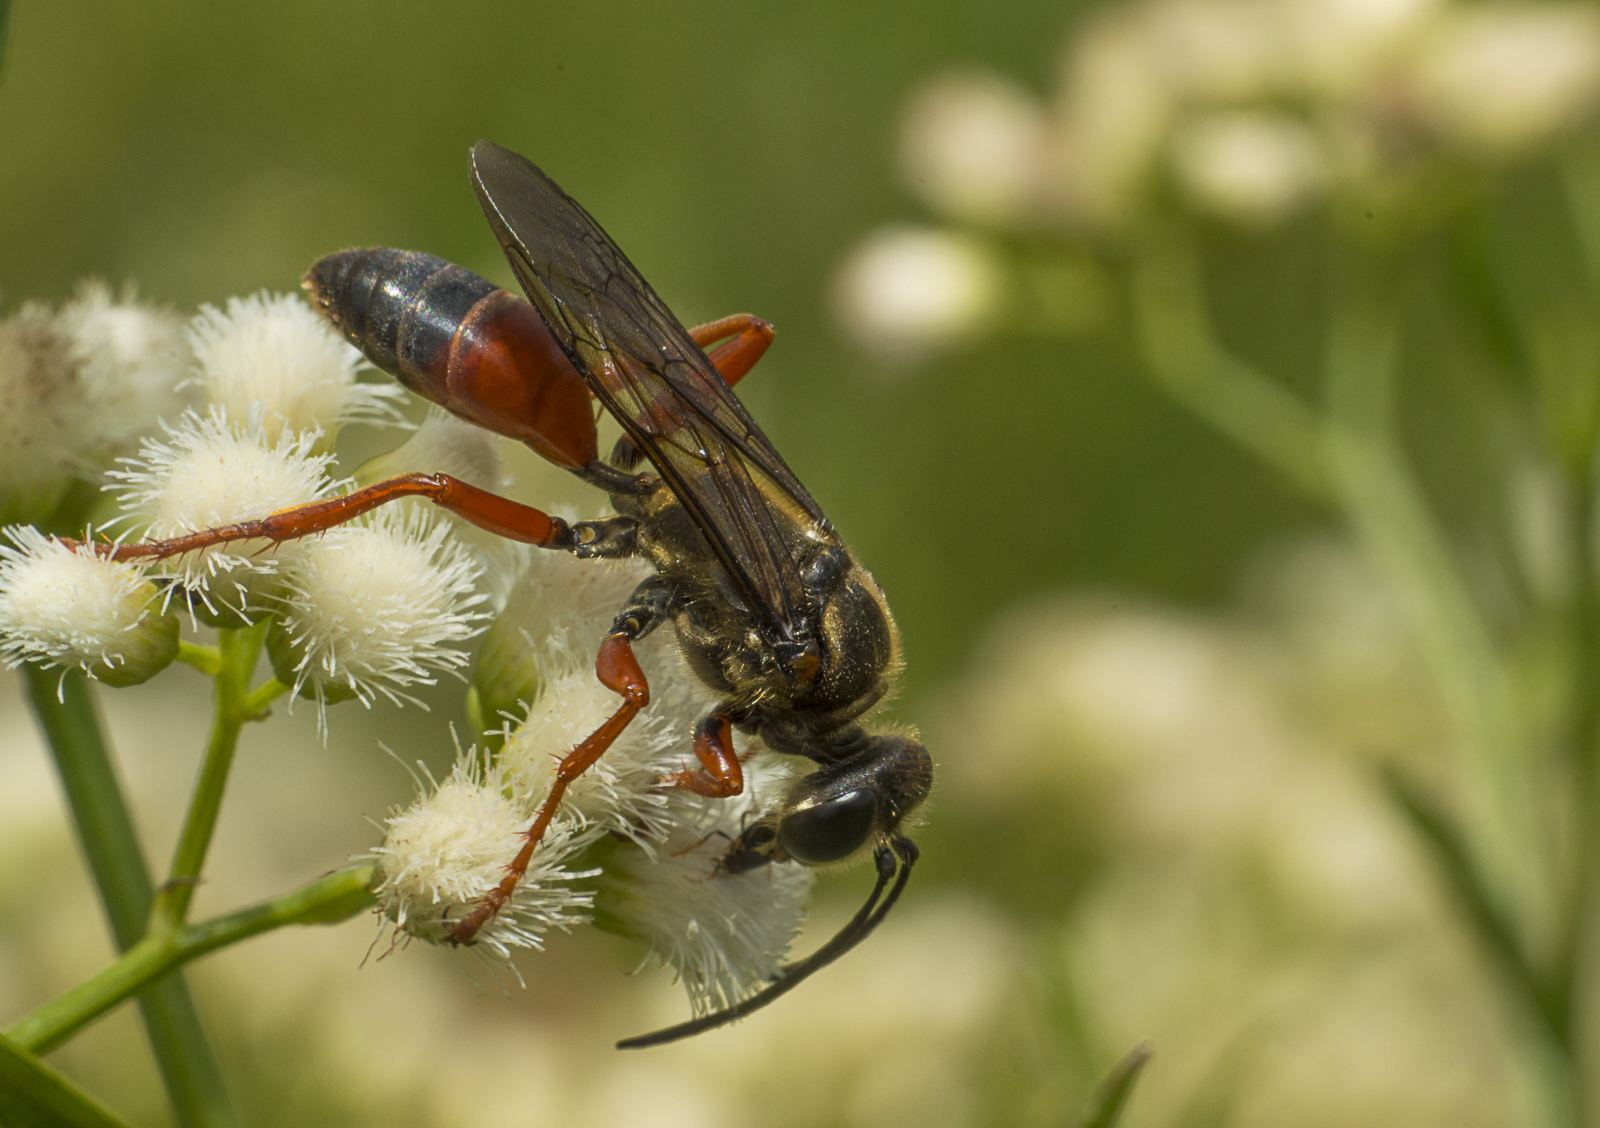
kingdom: Animalia
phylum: Arthropoda
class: Insecta
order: Hymenoptera
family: Sphecidae
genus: Sphex
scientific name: Sphex ichneumoneus
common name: Great golden digger wasp
